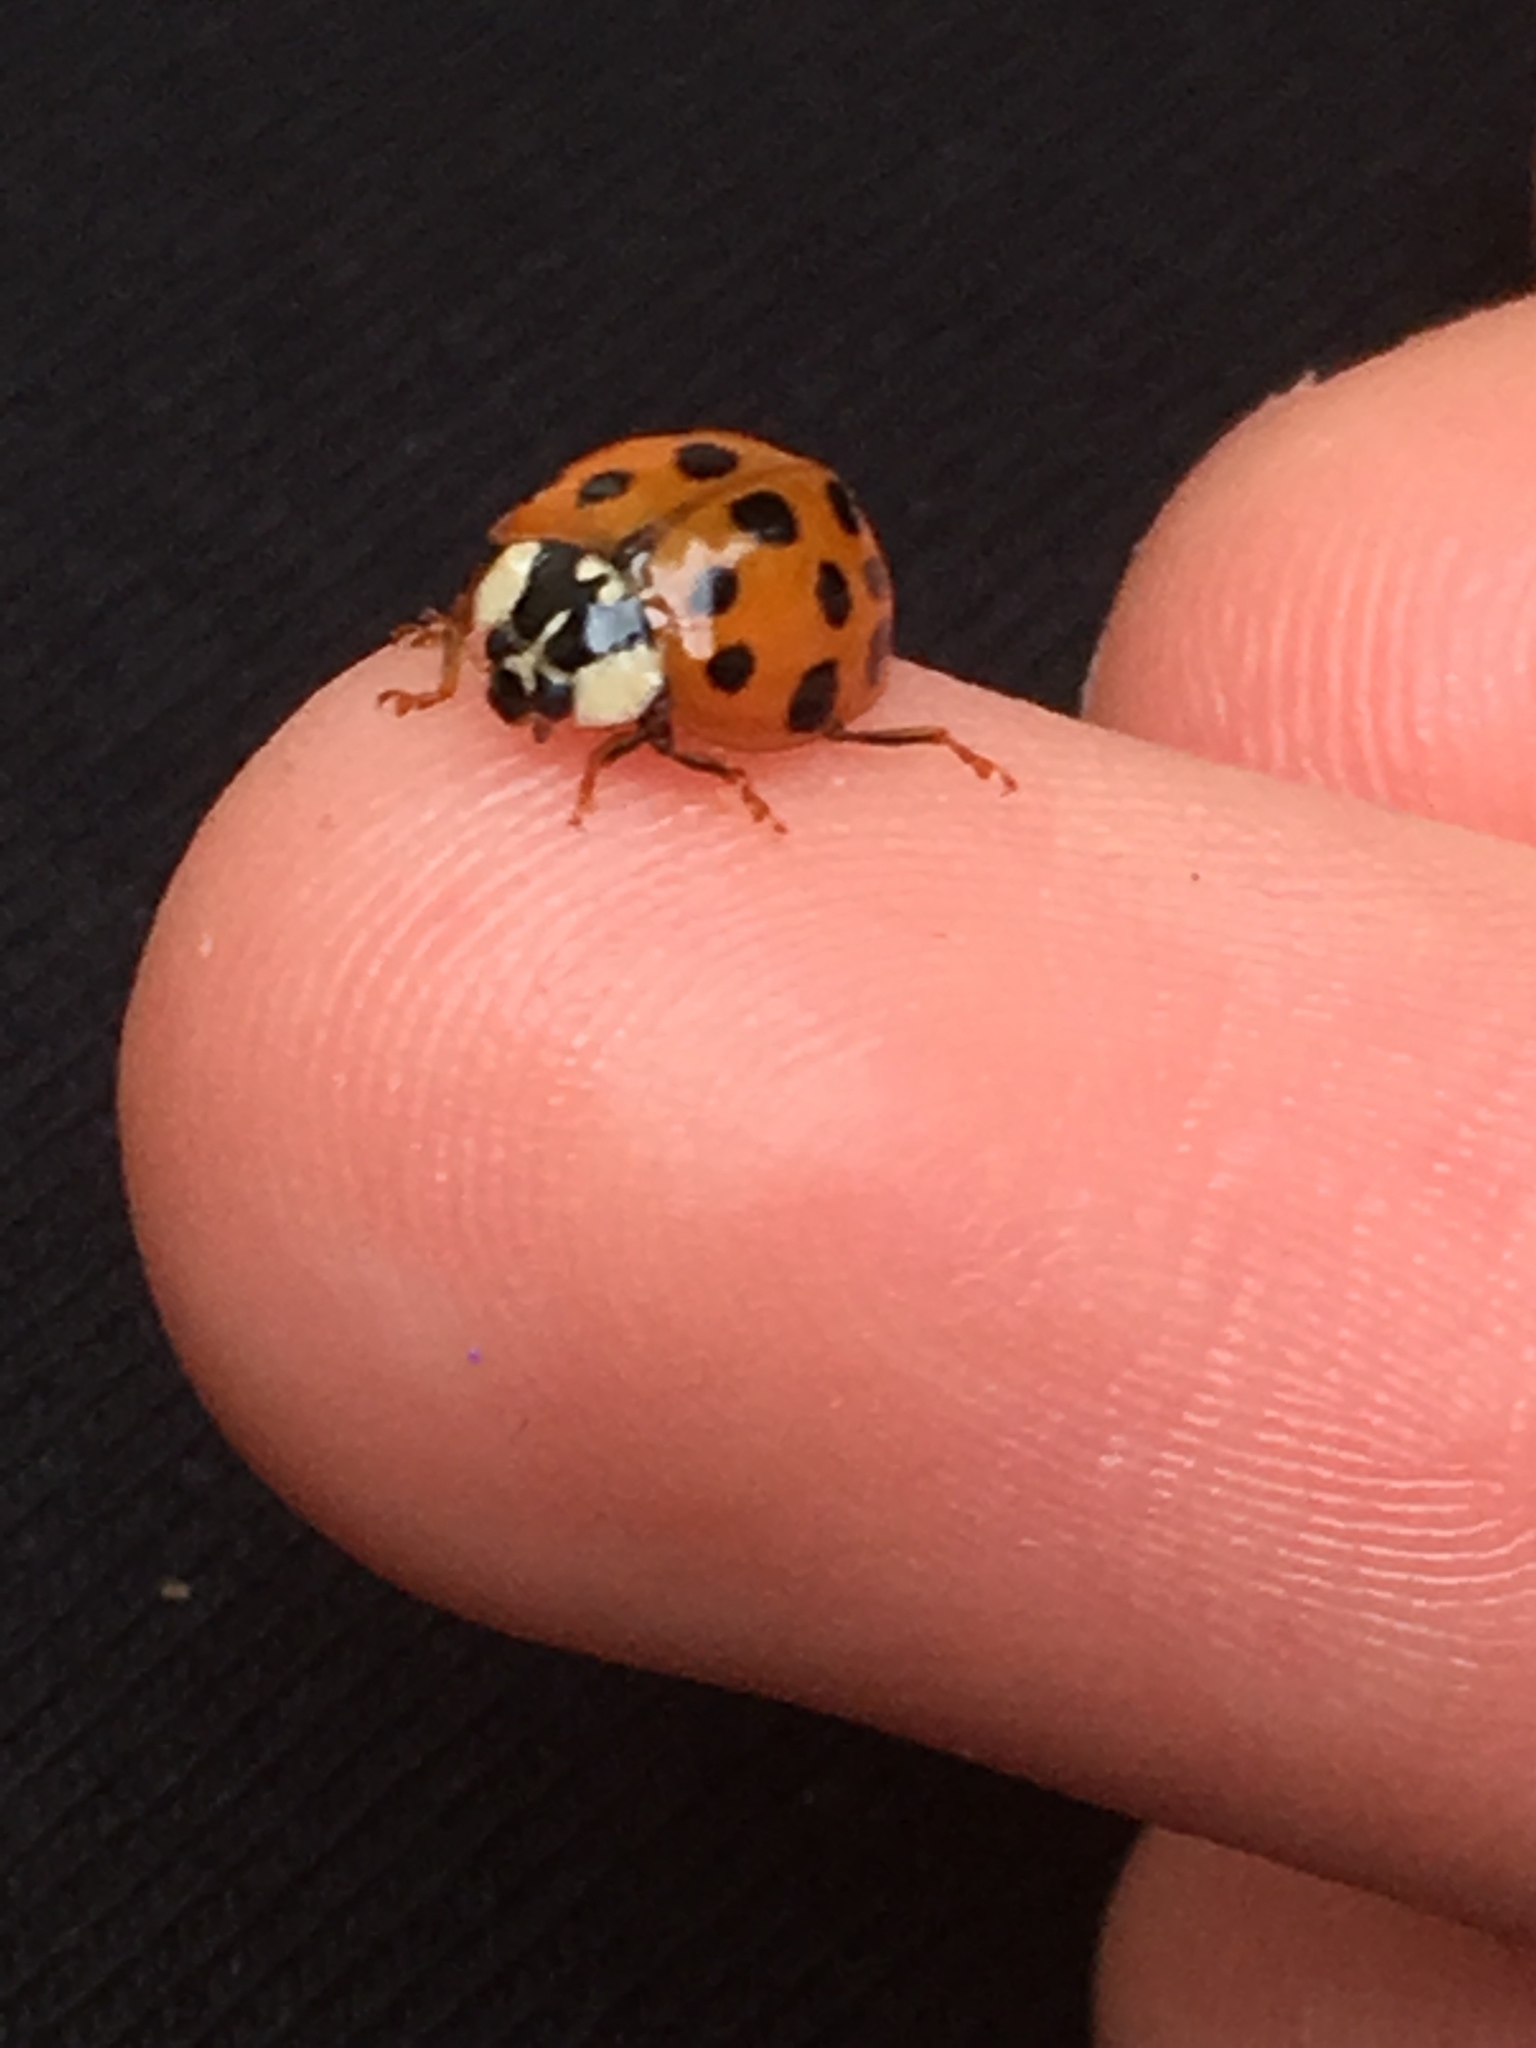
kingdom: Animalia
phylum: Arthropoda
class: Insecta
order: Coleoptera
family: Coccinellidae
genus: Harmonia
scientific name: Harmonia axyridis
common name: Harlequin ladybird
